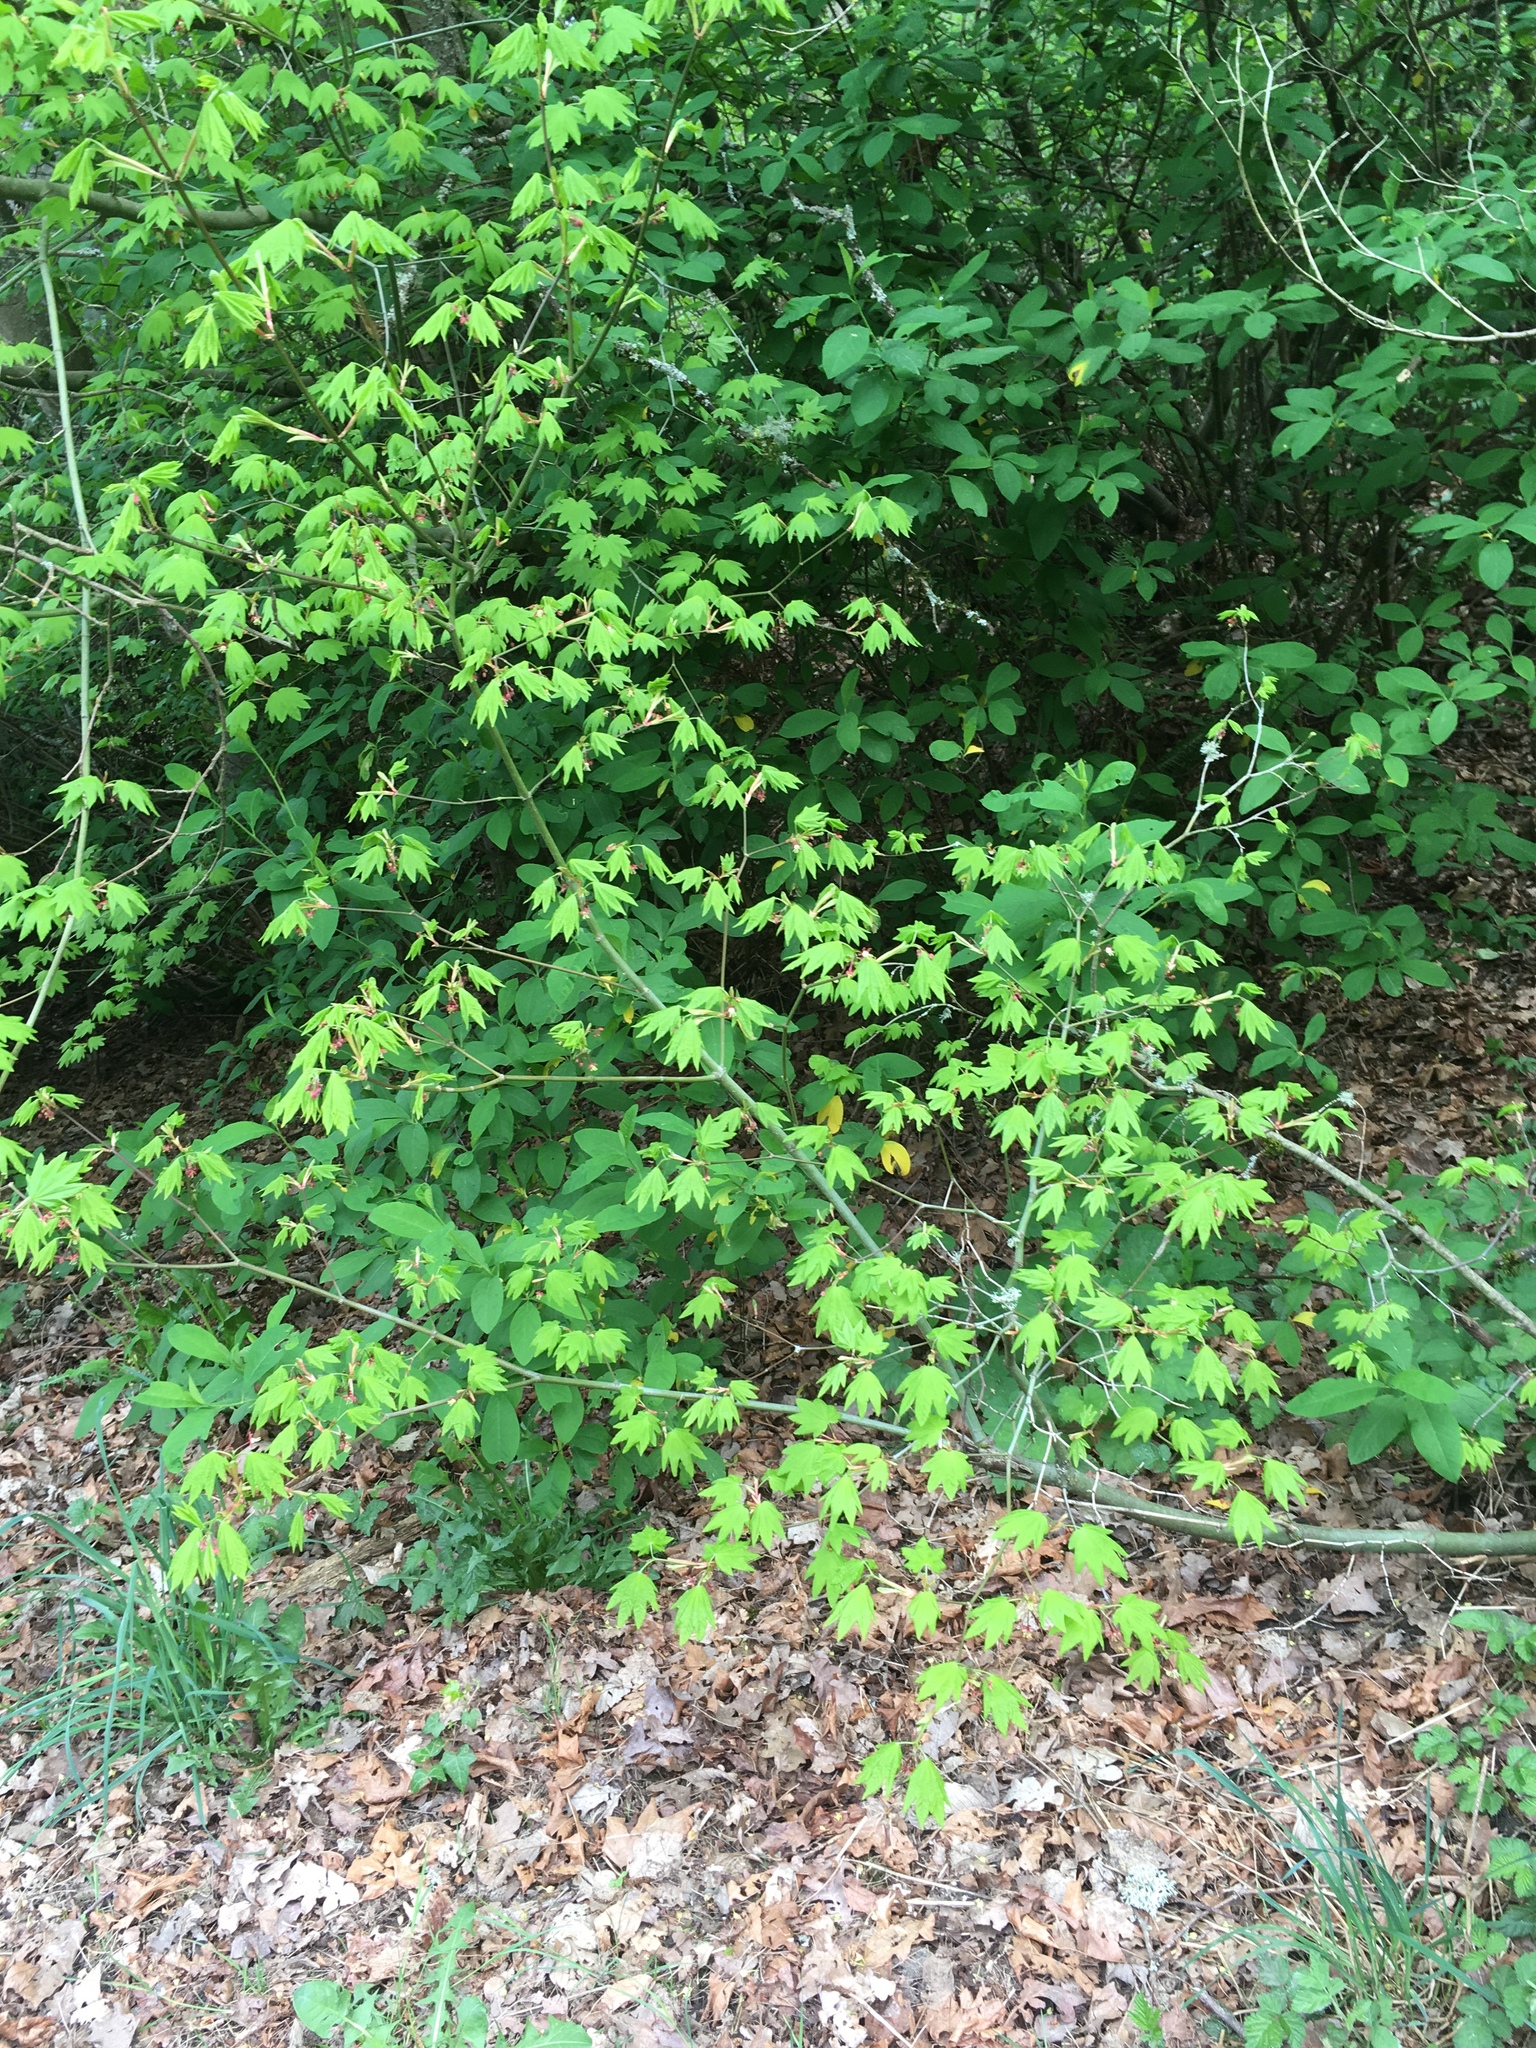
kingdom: Plantae
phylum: Tracheophyta
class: Magnoliopsida
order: Sapindales
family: Sapindaceae
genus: Acer
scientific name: Acer circinatum
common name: Vine maple
